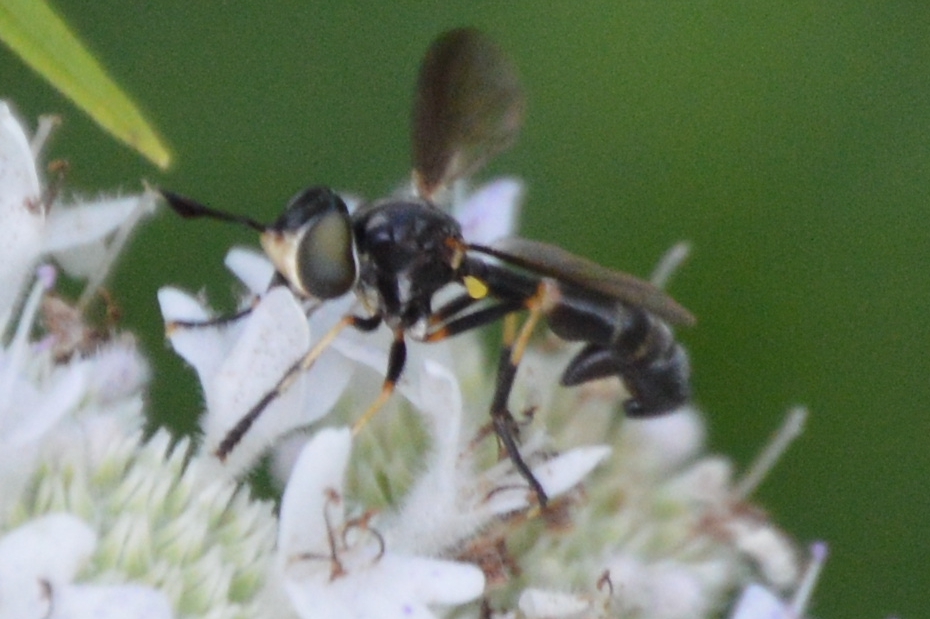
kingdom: Animalia
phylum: Arthropoda
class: Insecta
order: Diptera
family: Conopidae
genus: Physoconops
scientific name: Physoconops obscuripennis
